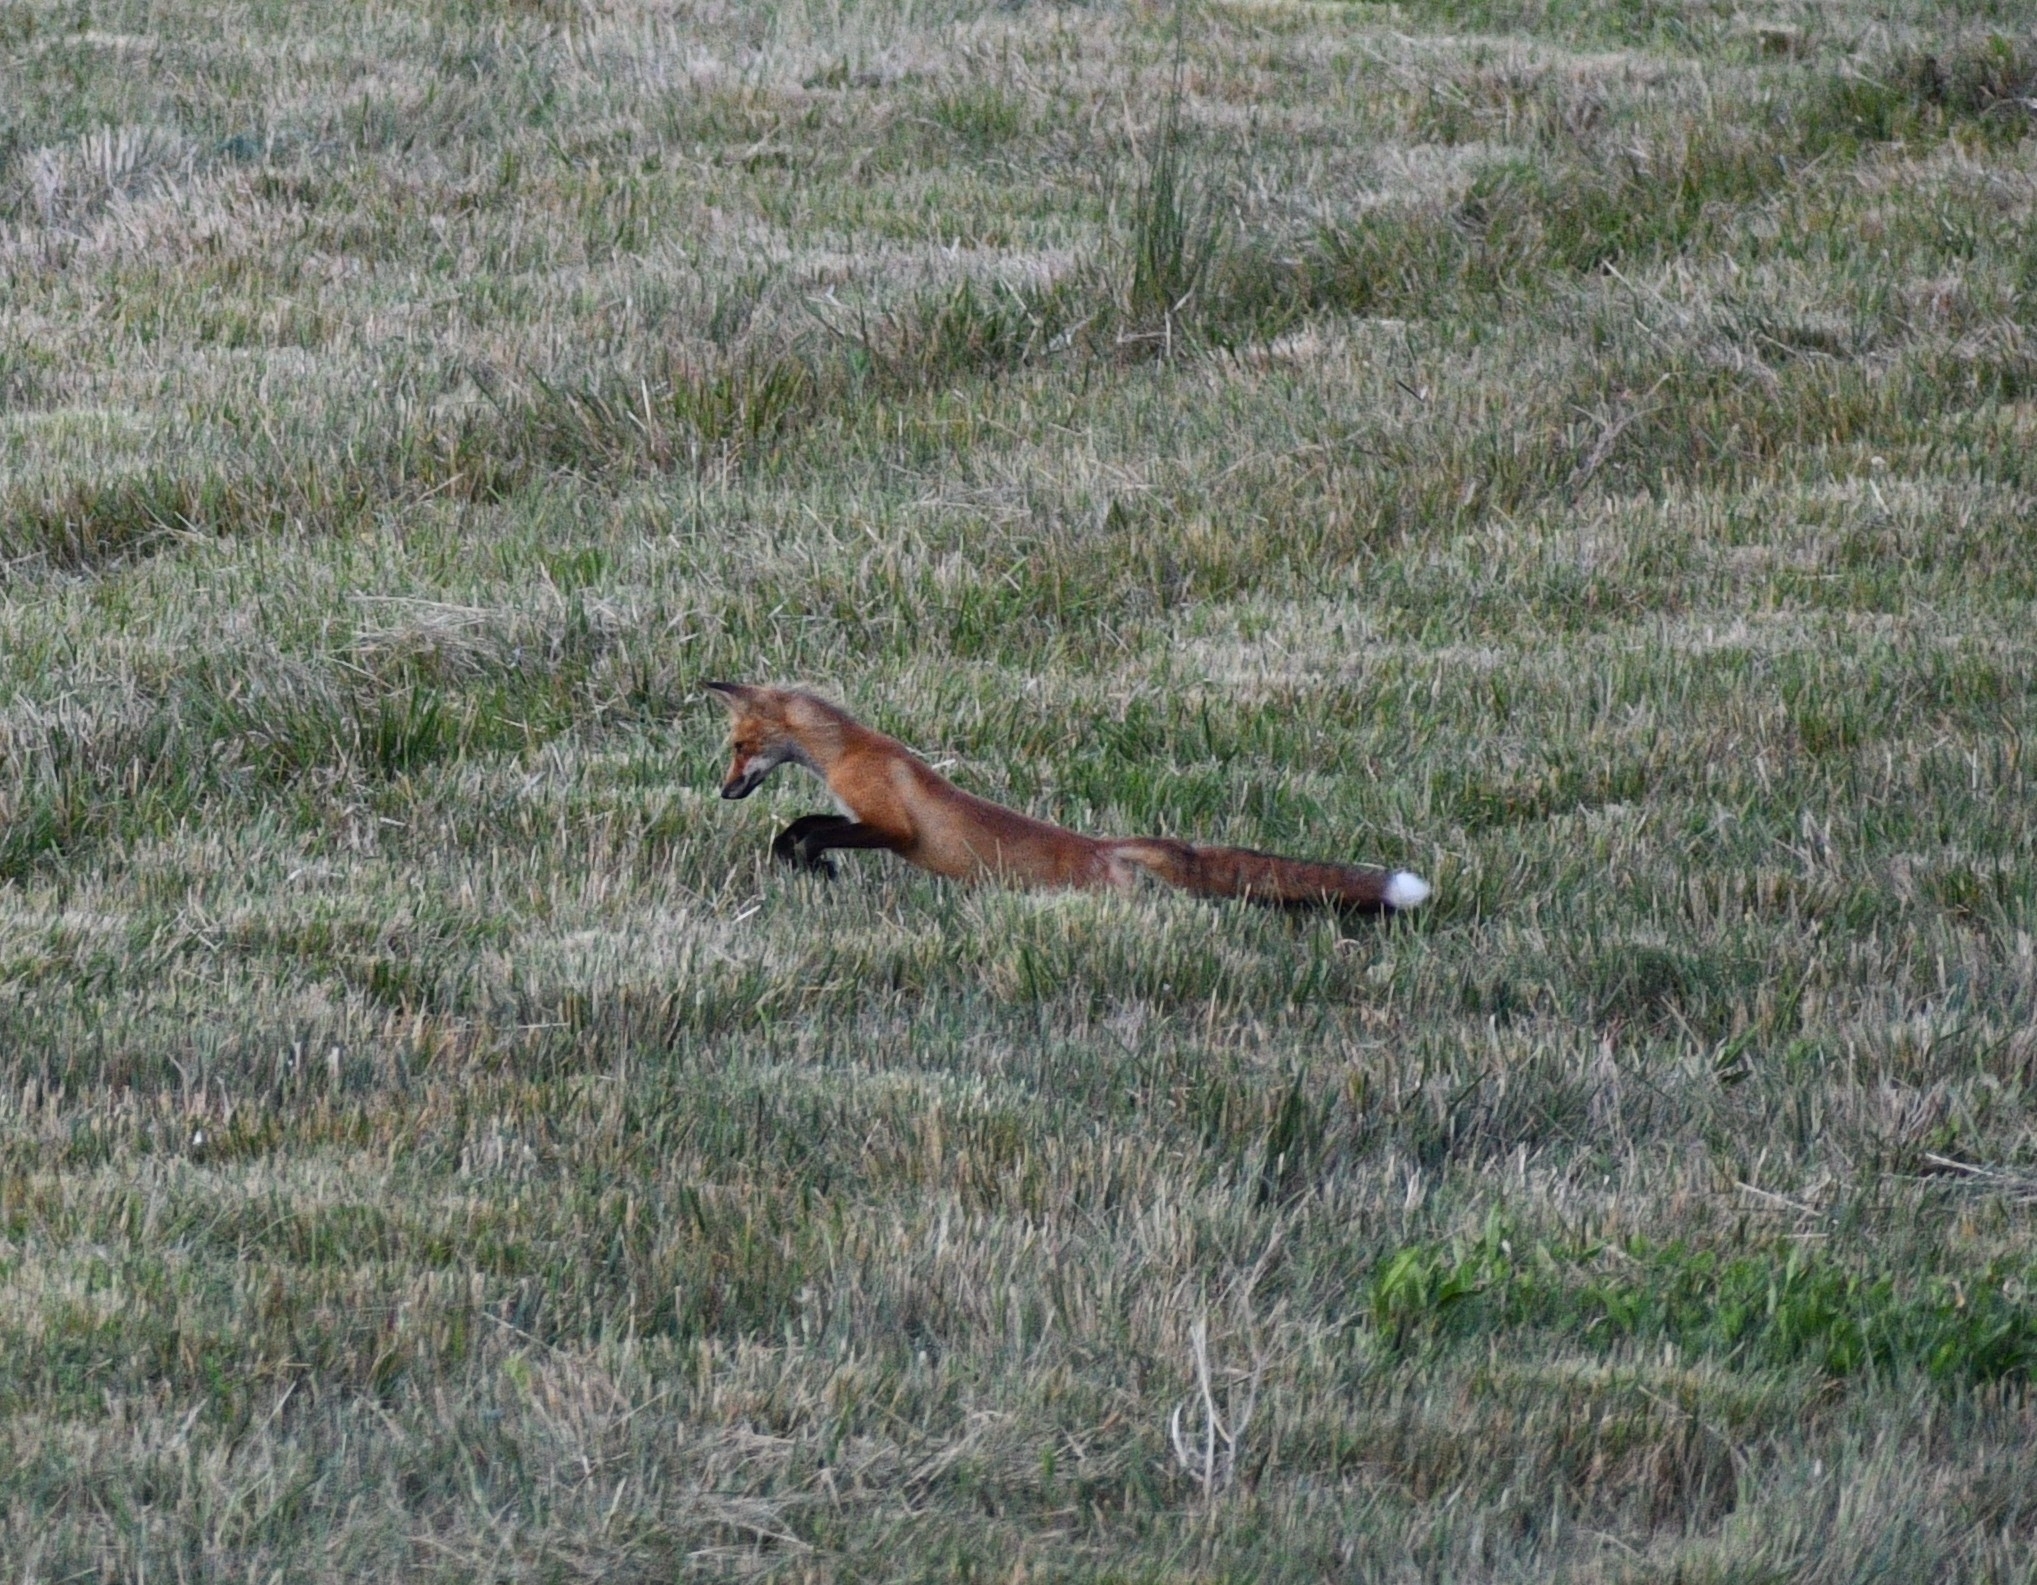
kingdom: Animalia
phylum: Chordata
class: Mammalia
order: Carnivora
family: Canidae
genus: Vulpes
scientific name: Vulpes vulpes
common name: Red fox
